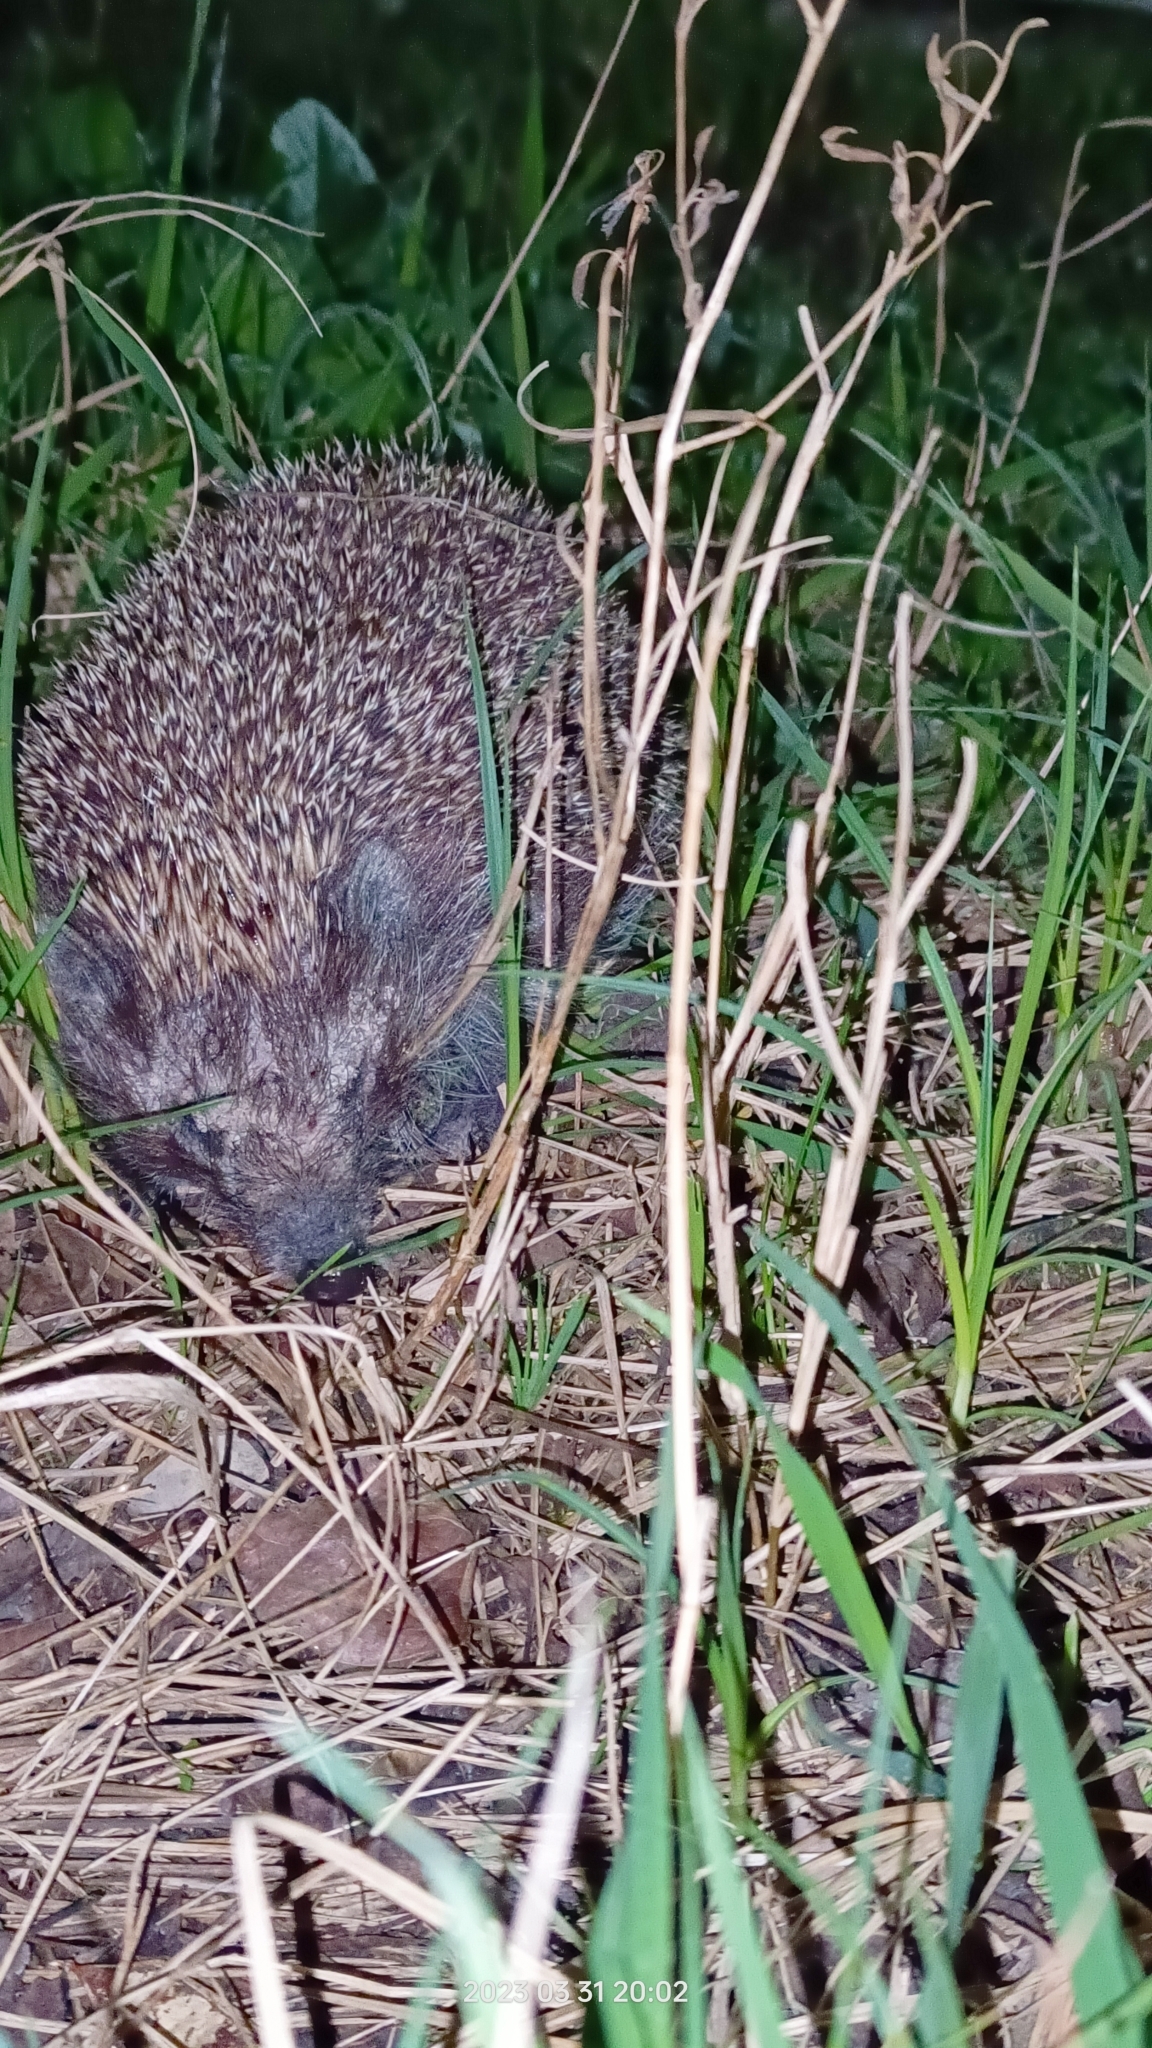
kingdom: Animalia
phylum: Chordata
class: Mammalia
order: Erinaceomorpha
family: Erinaceidae
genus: Erinaceus
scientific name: Erinaceus roumanicus
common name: Northern white-breasted hedgehog
